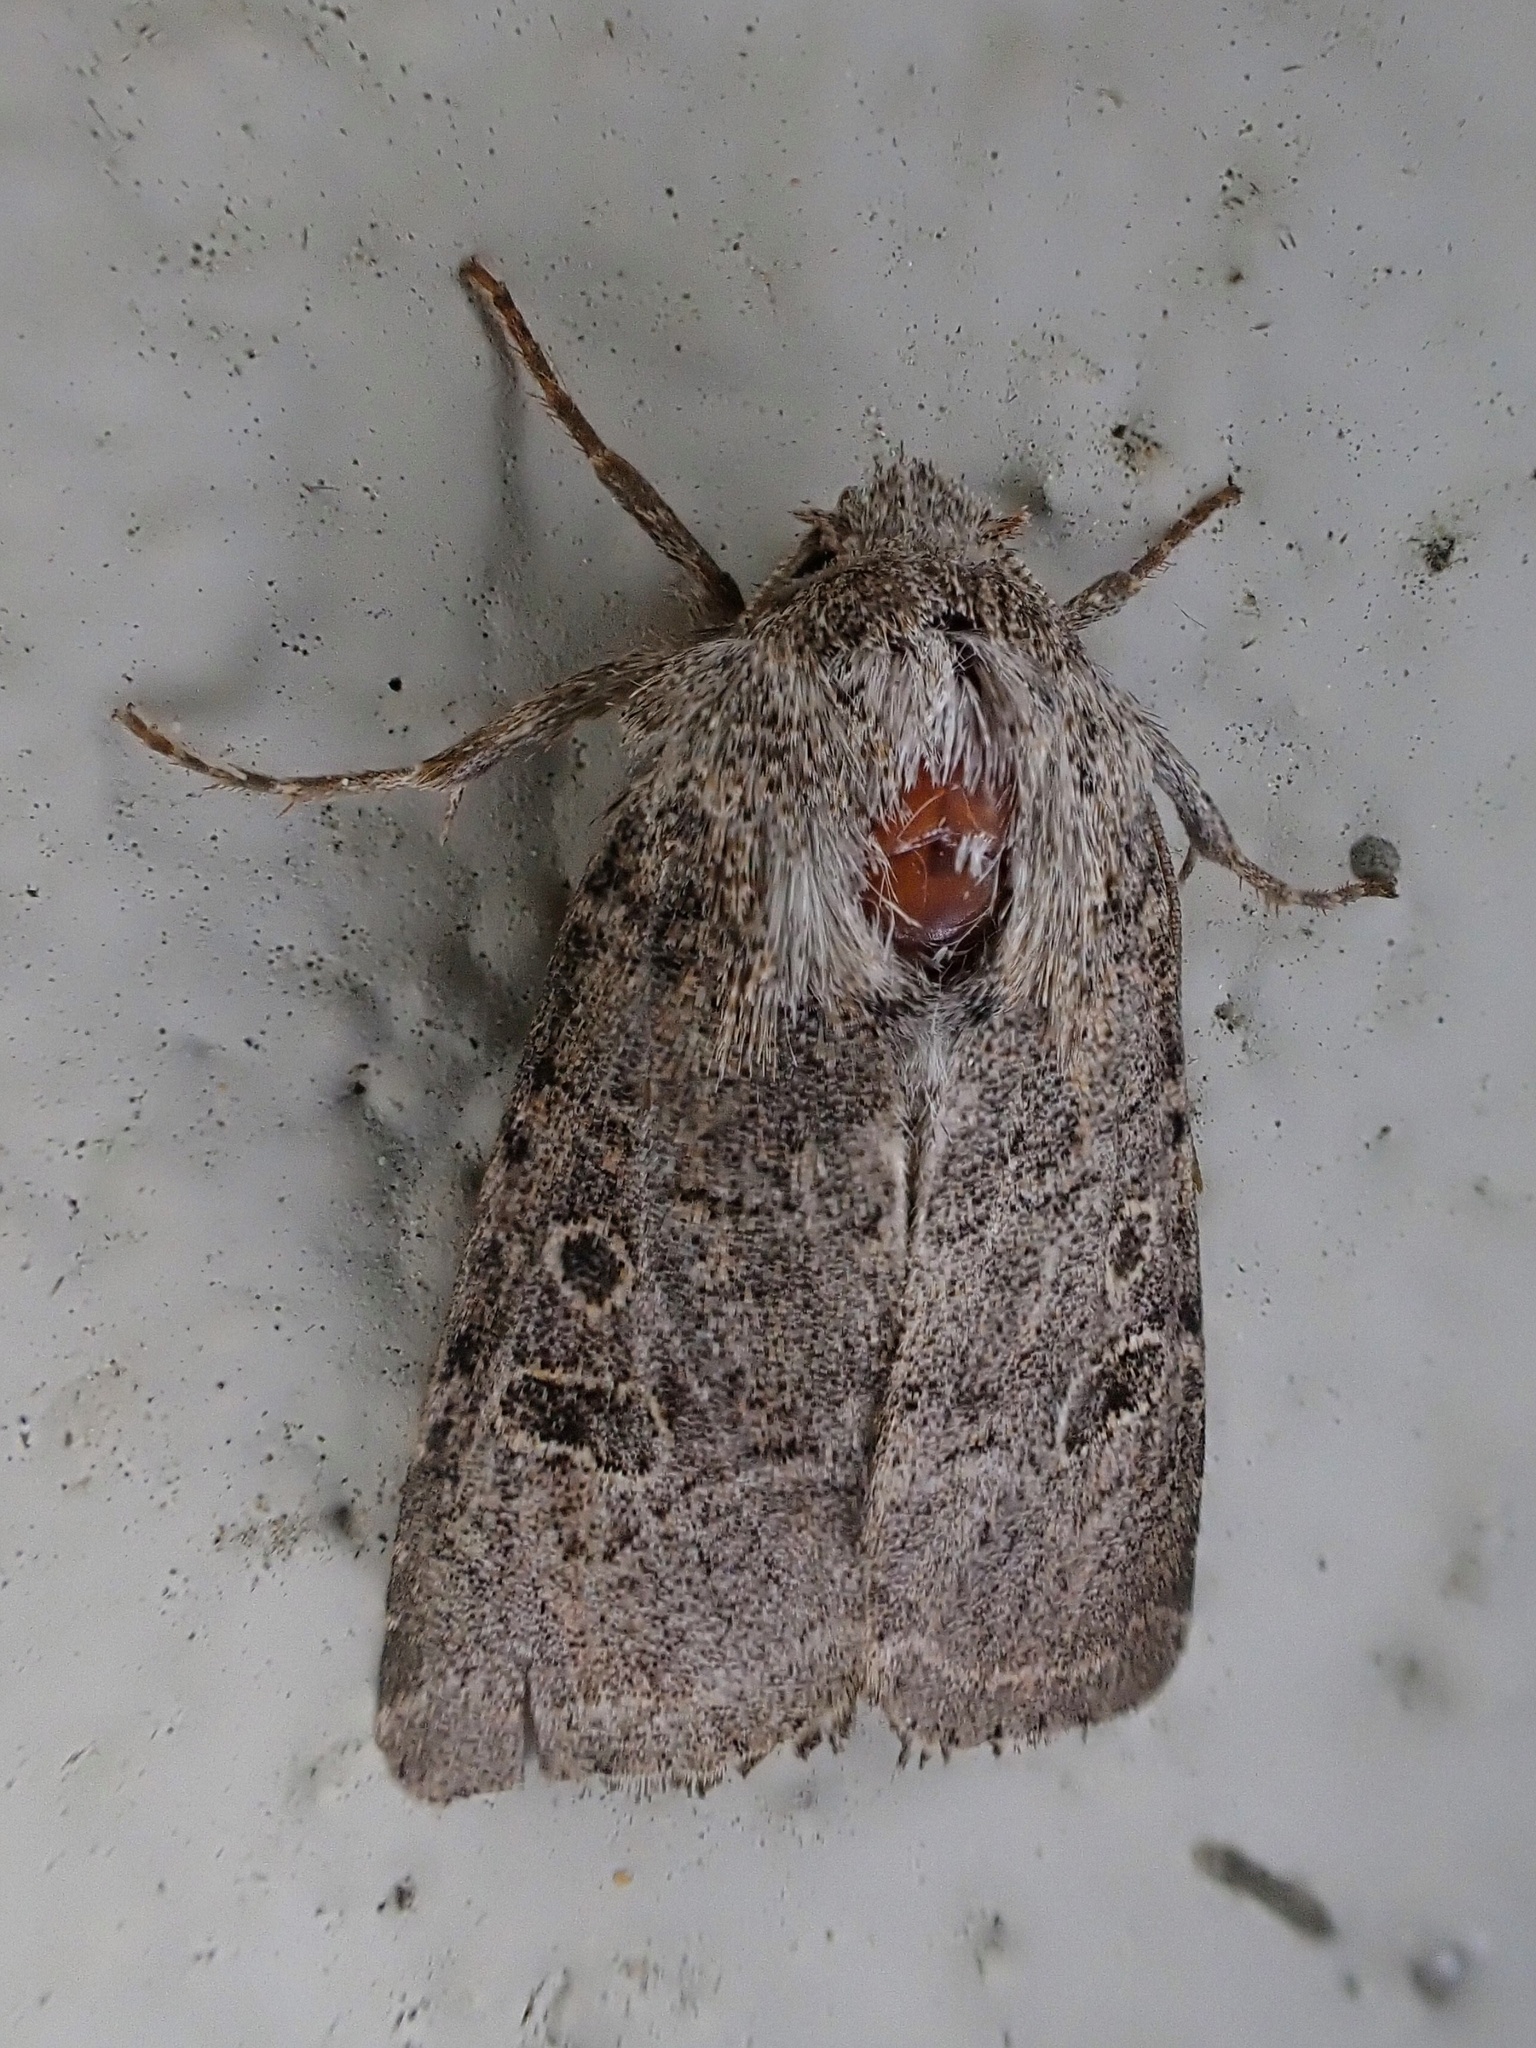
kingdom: Animalia
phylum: Arthropoda
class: Insecta
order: Lepidoptera
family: Noctuidae
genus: Trichopolia
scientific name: Trichopolia
